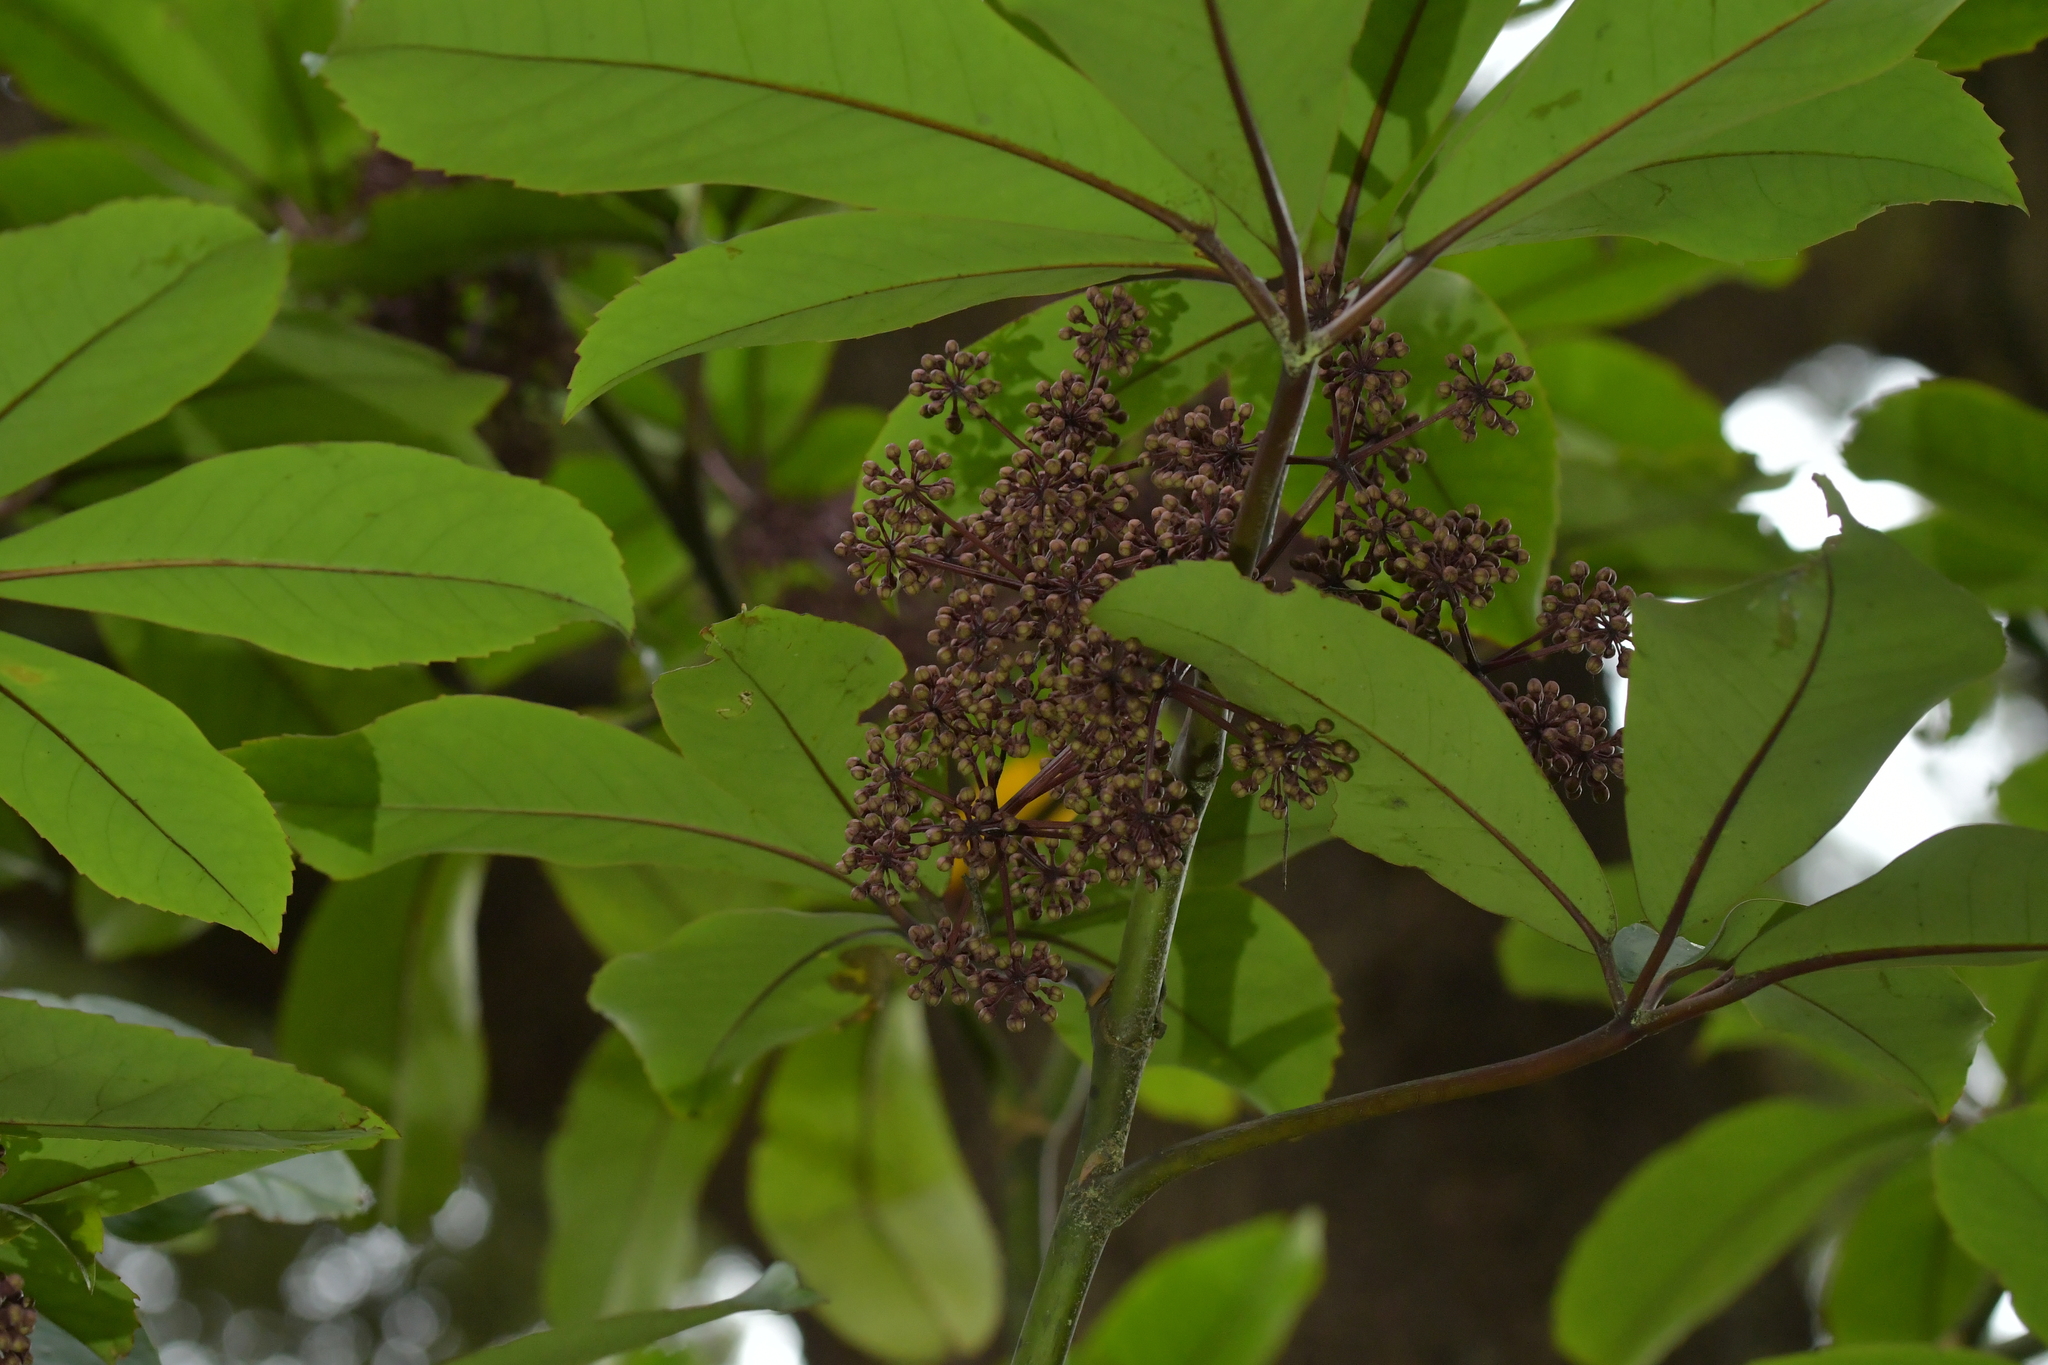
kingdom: Plantae
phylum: Tracheophyta
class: Magnoliopsida
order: Apiales
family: Araliaceae
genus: Neopanax
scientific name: Neopanax laetus
